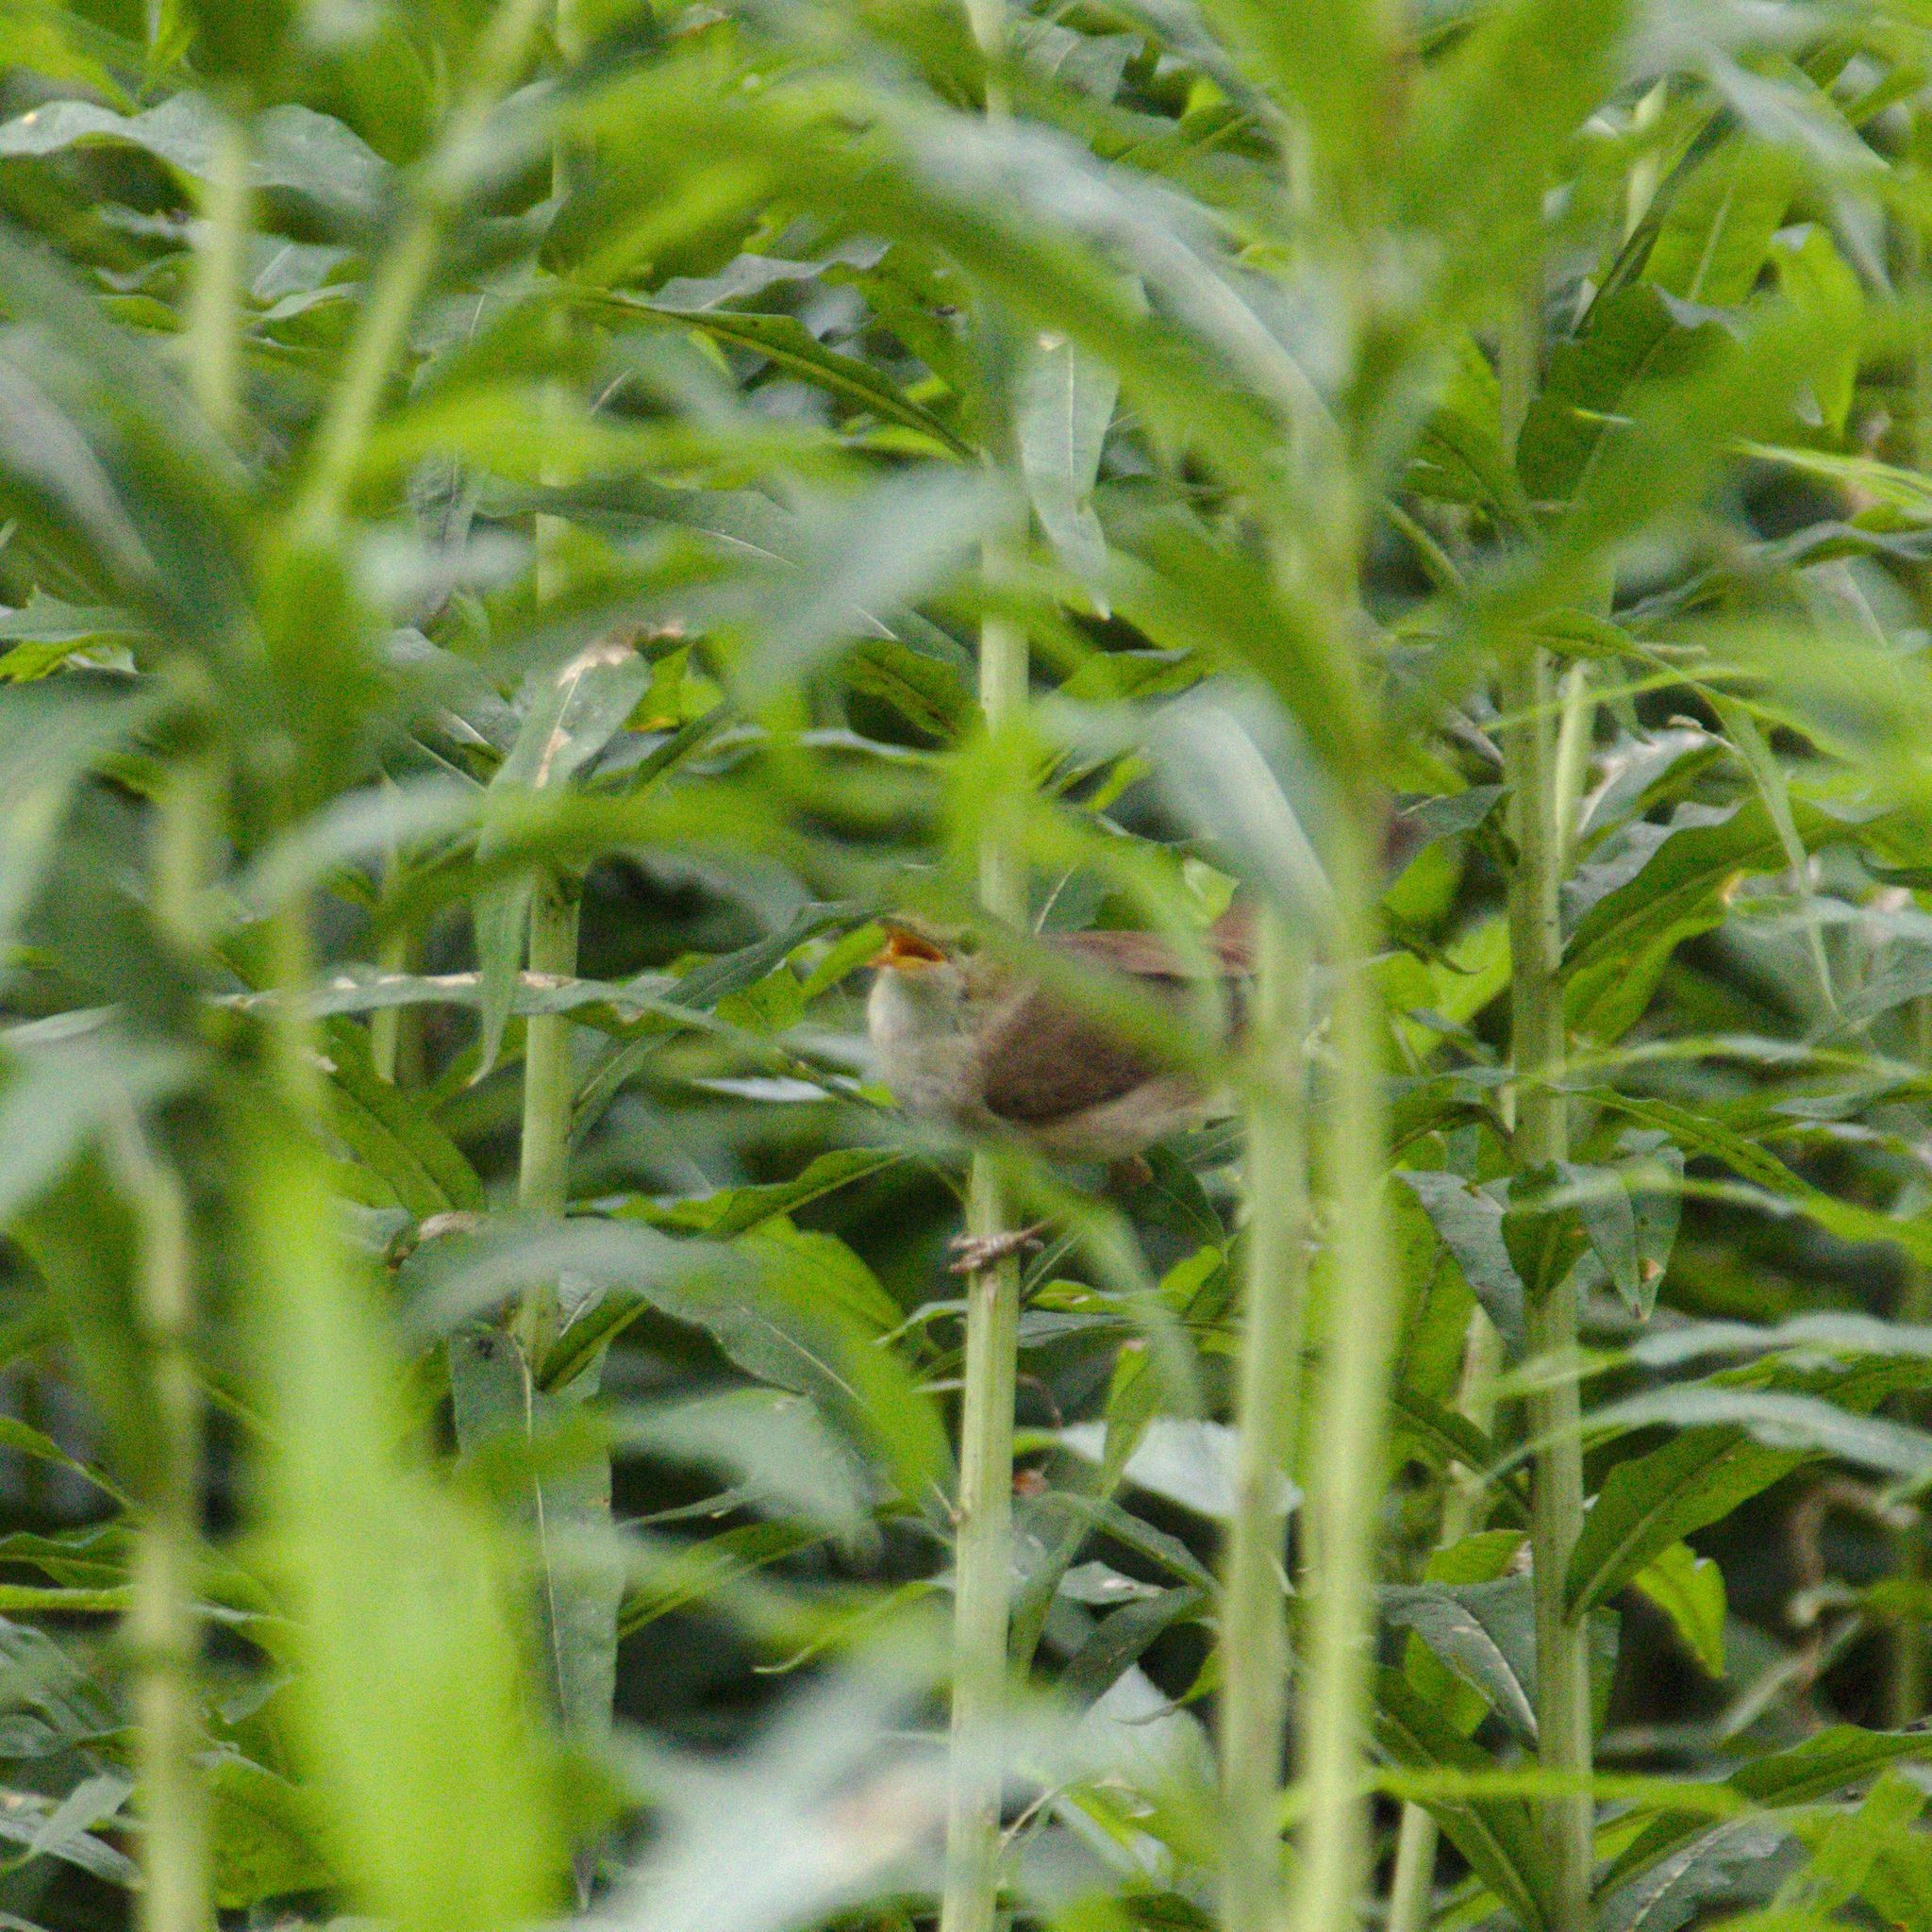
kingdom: Animalia
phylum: Chordata
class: Aves
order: Passeriformes
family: Acrocephalidae
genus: Acrocephalus
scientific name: Acrocephalus dumetorum
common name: Blyth's reed warbler
